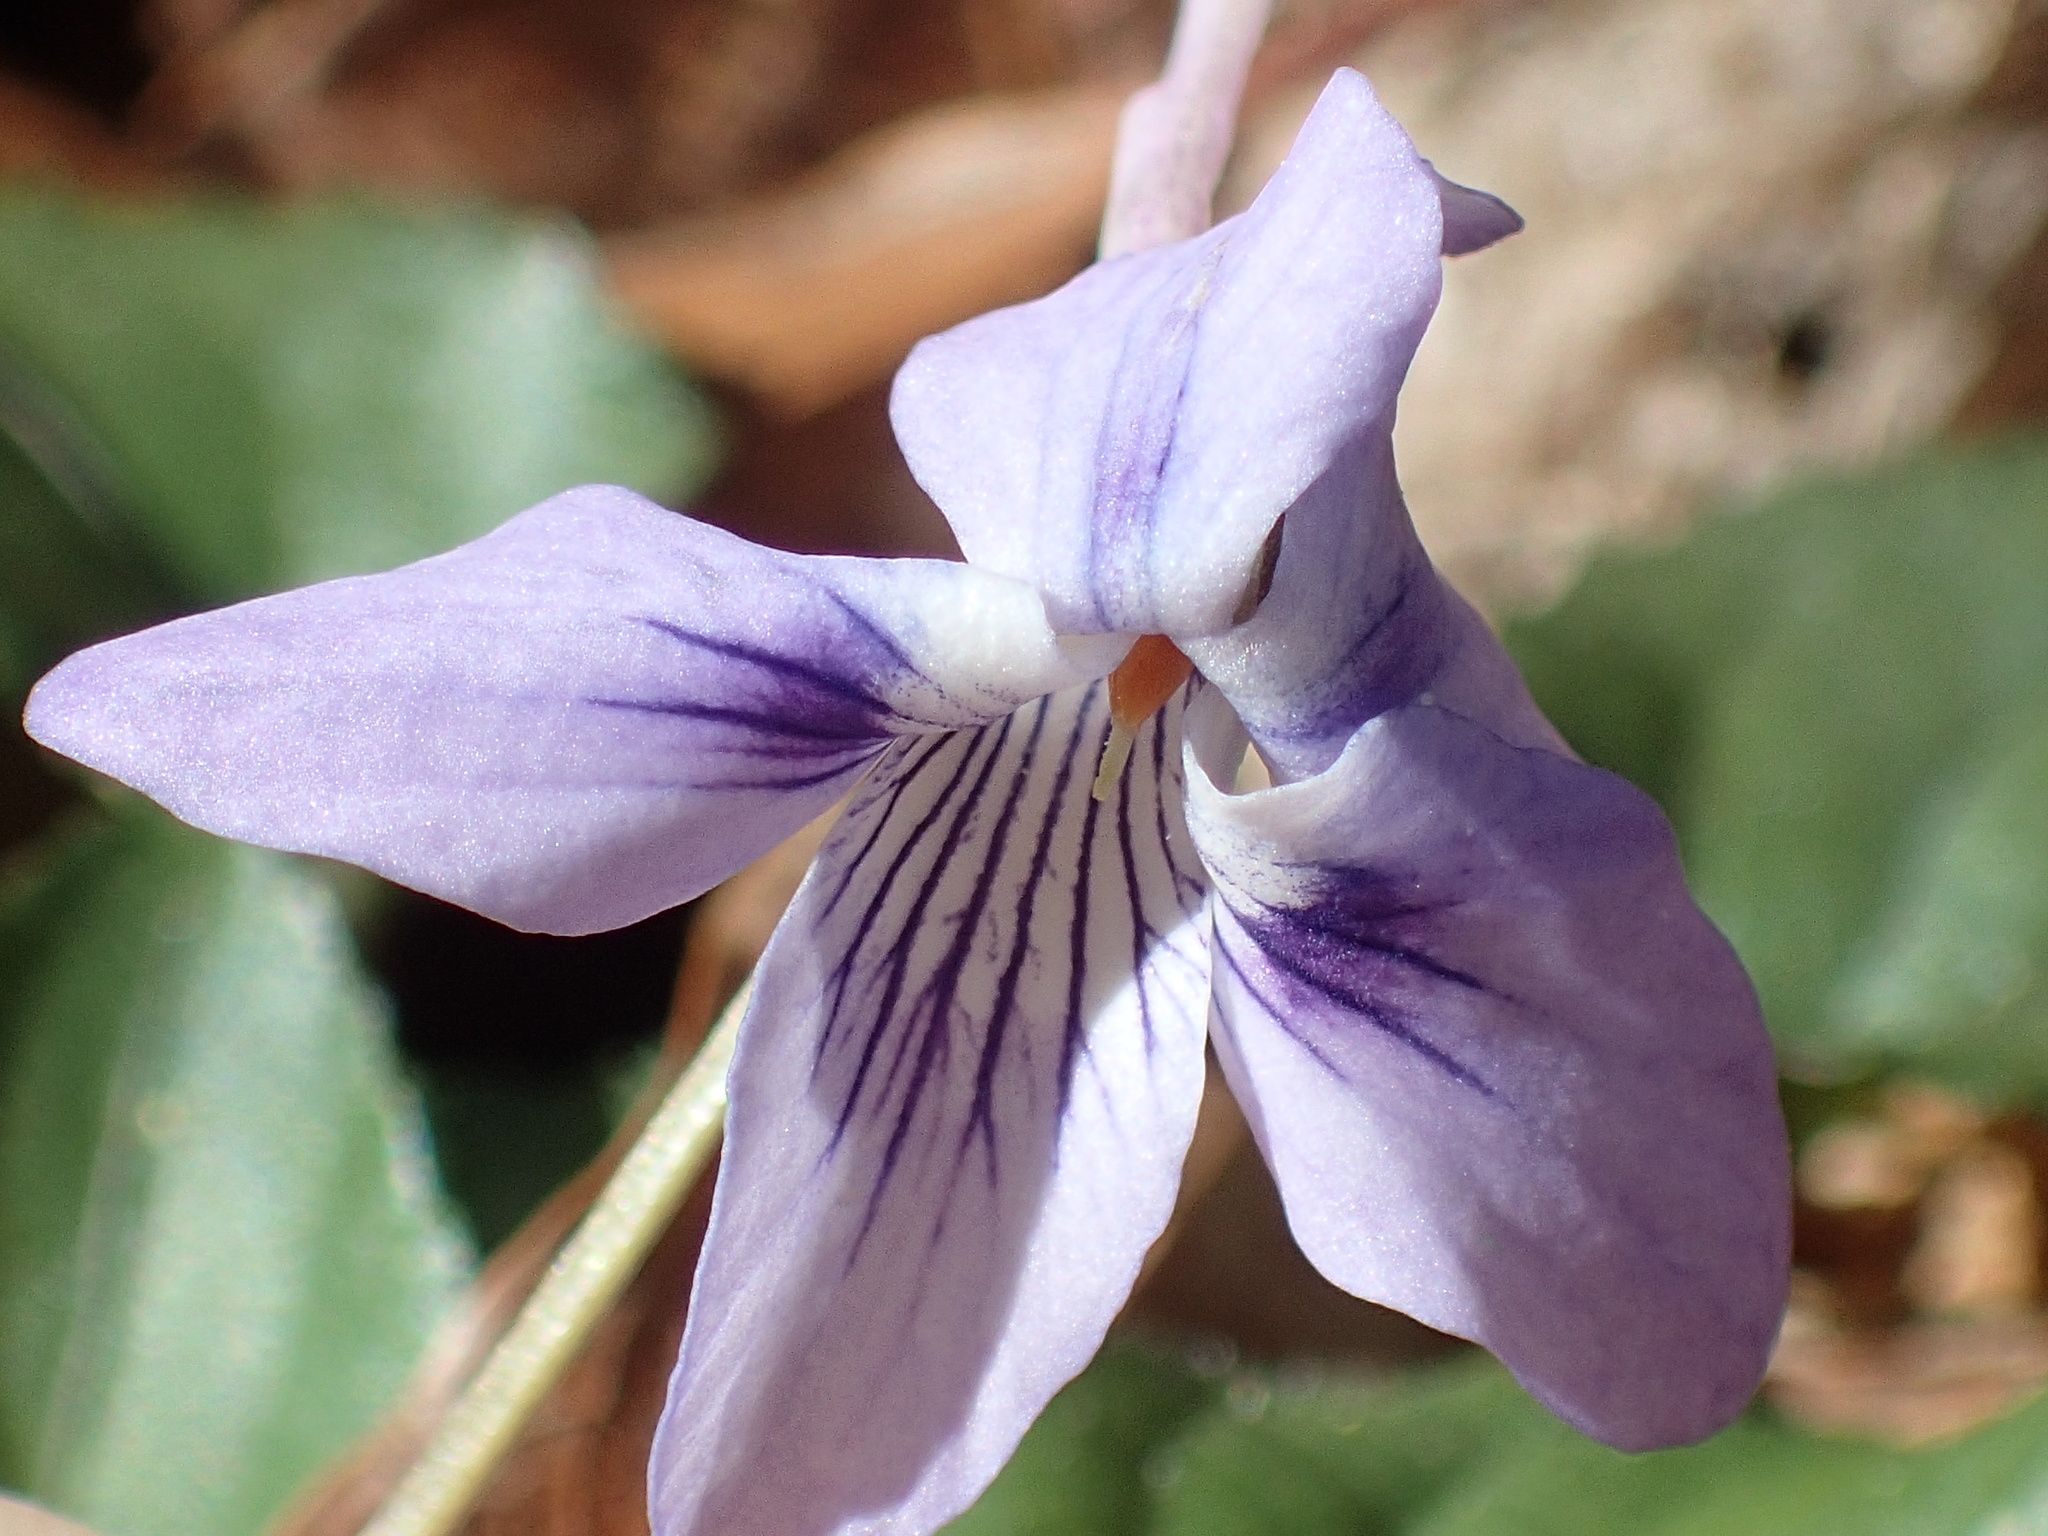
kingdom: Plantae
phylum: Tracheophyta
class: Magnoliopsida
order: Malpighiales
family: Violaceae
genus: Viola
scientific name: Viola rostrata
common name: Long-spur violet
